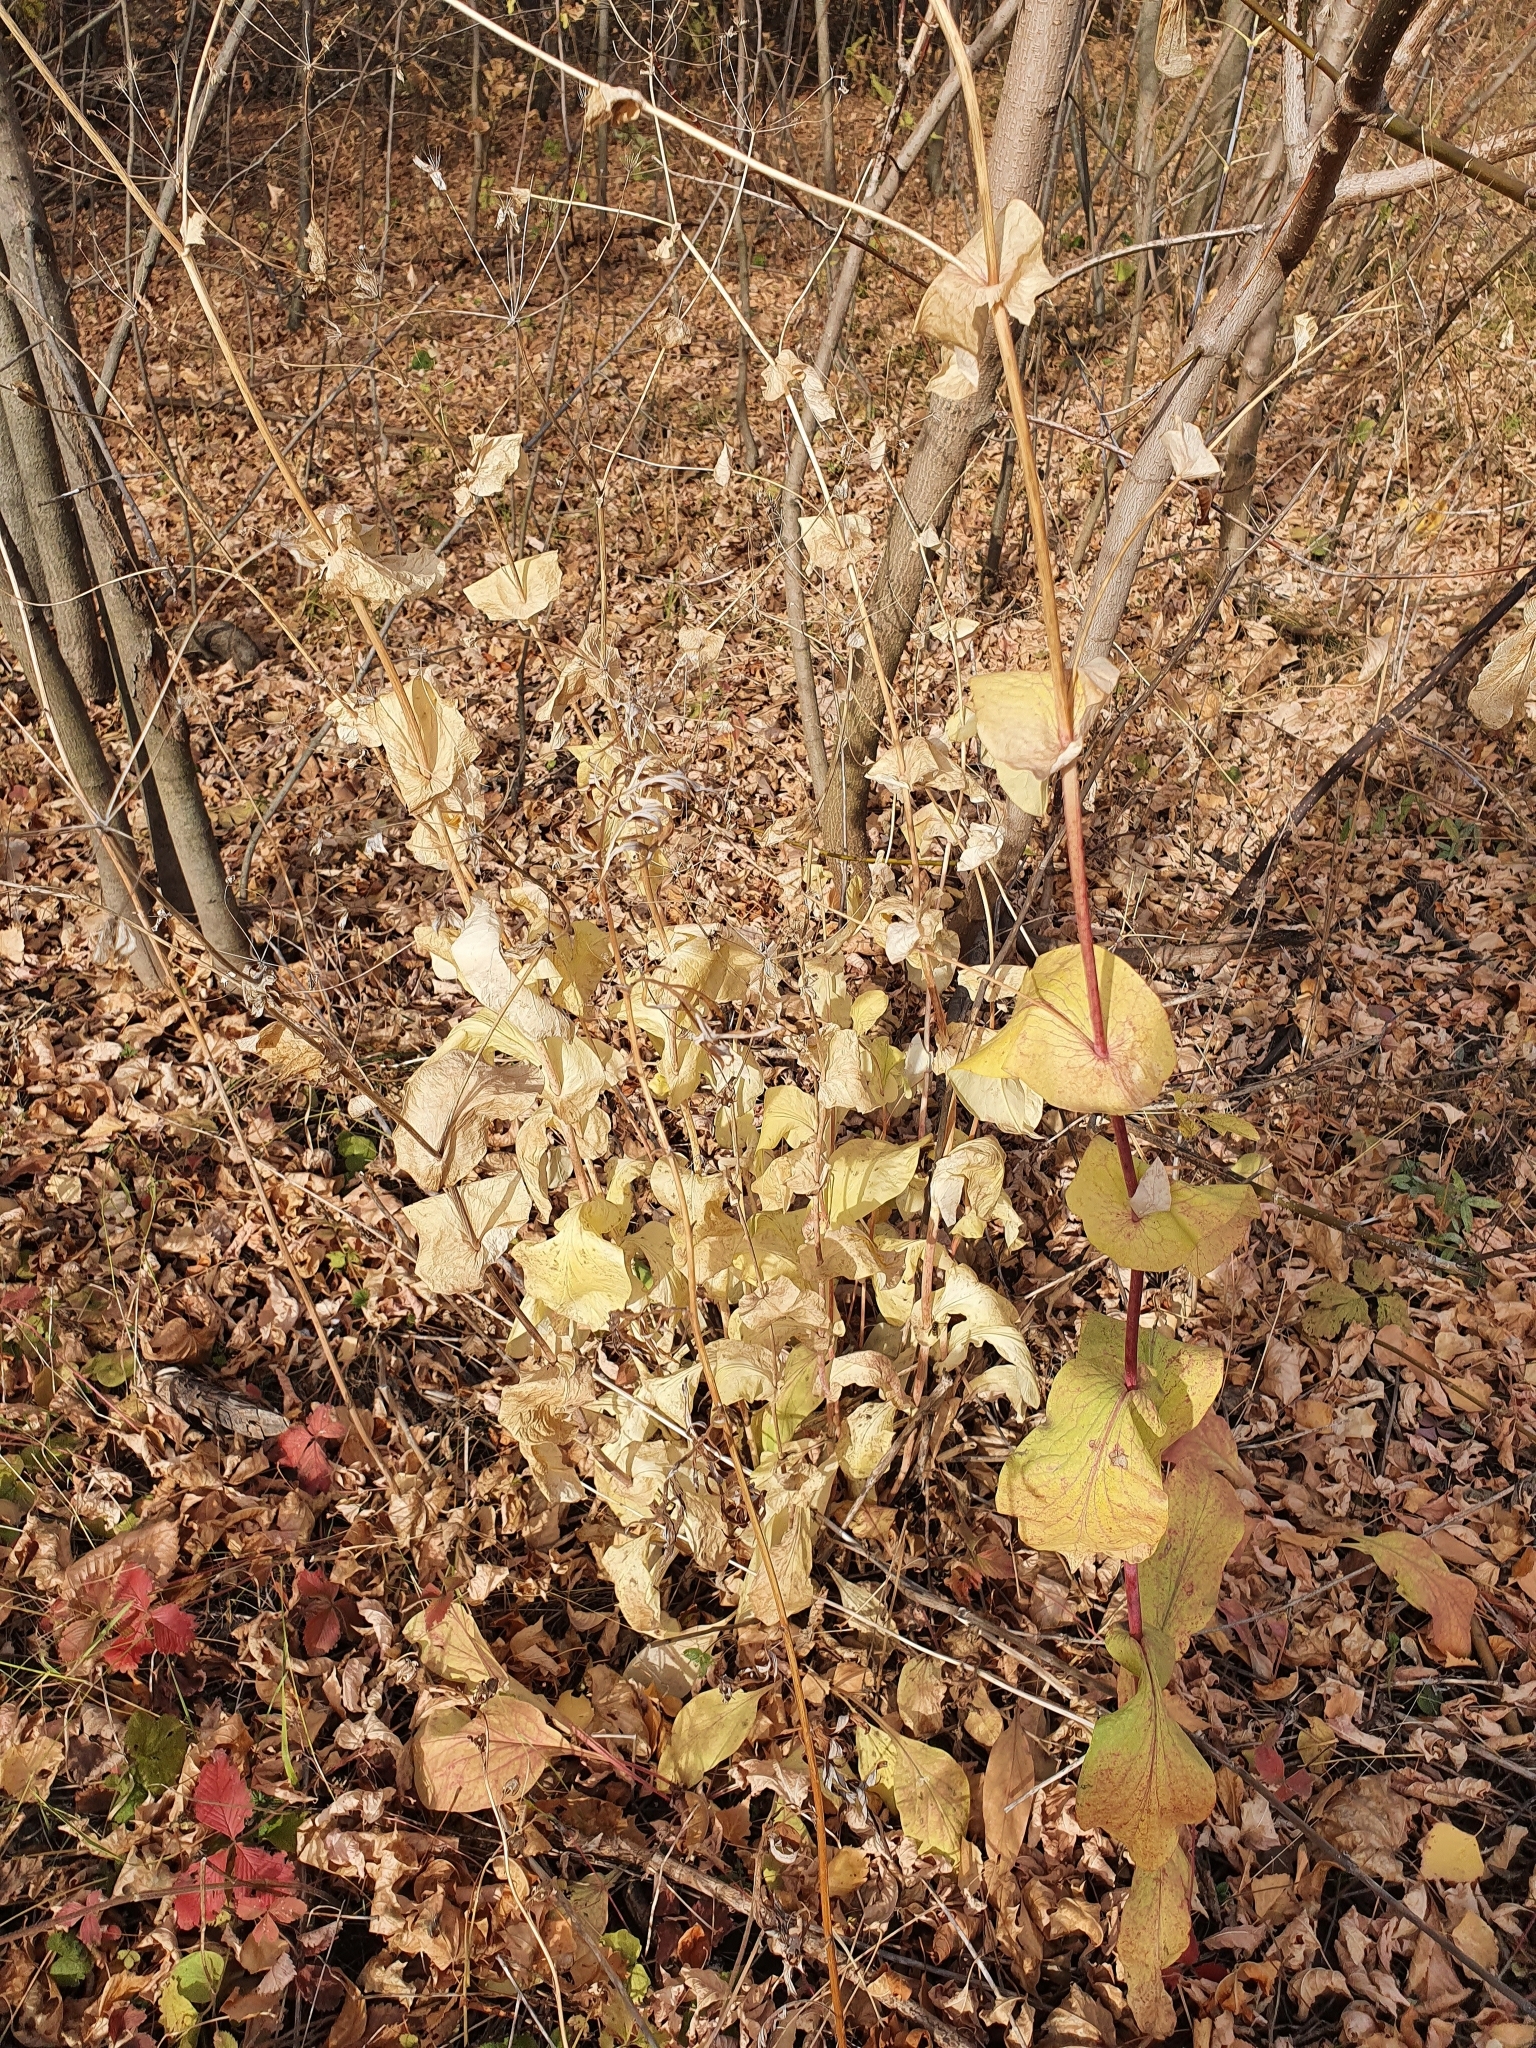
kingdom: Plantae
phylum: Tracheophyta
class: Magnoliopsida
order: Apiales
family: Apiaceae
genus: Bupleurum
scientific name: Bupleurum aureum
